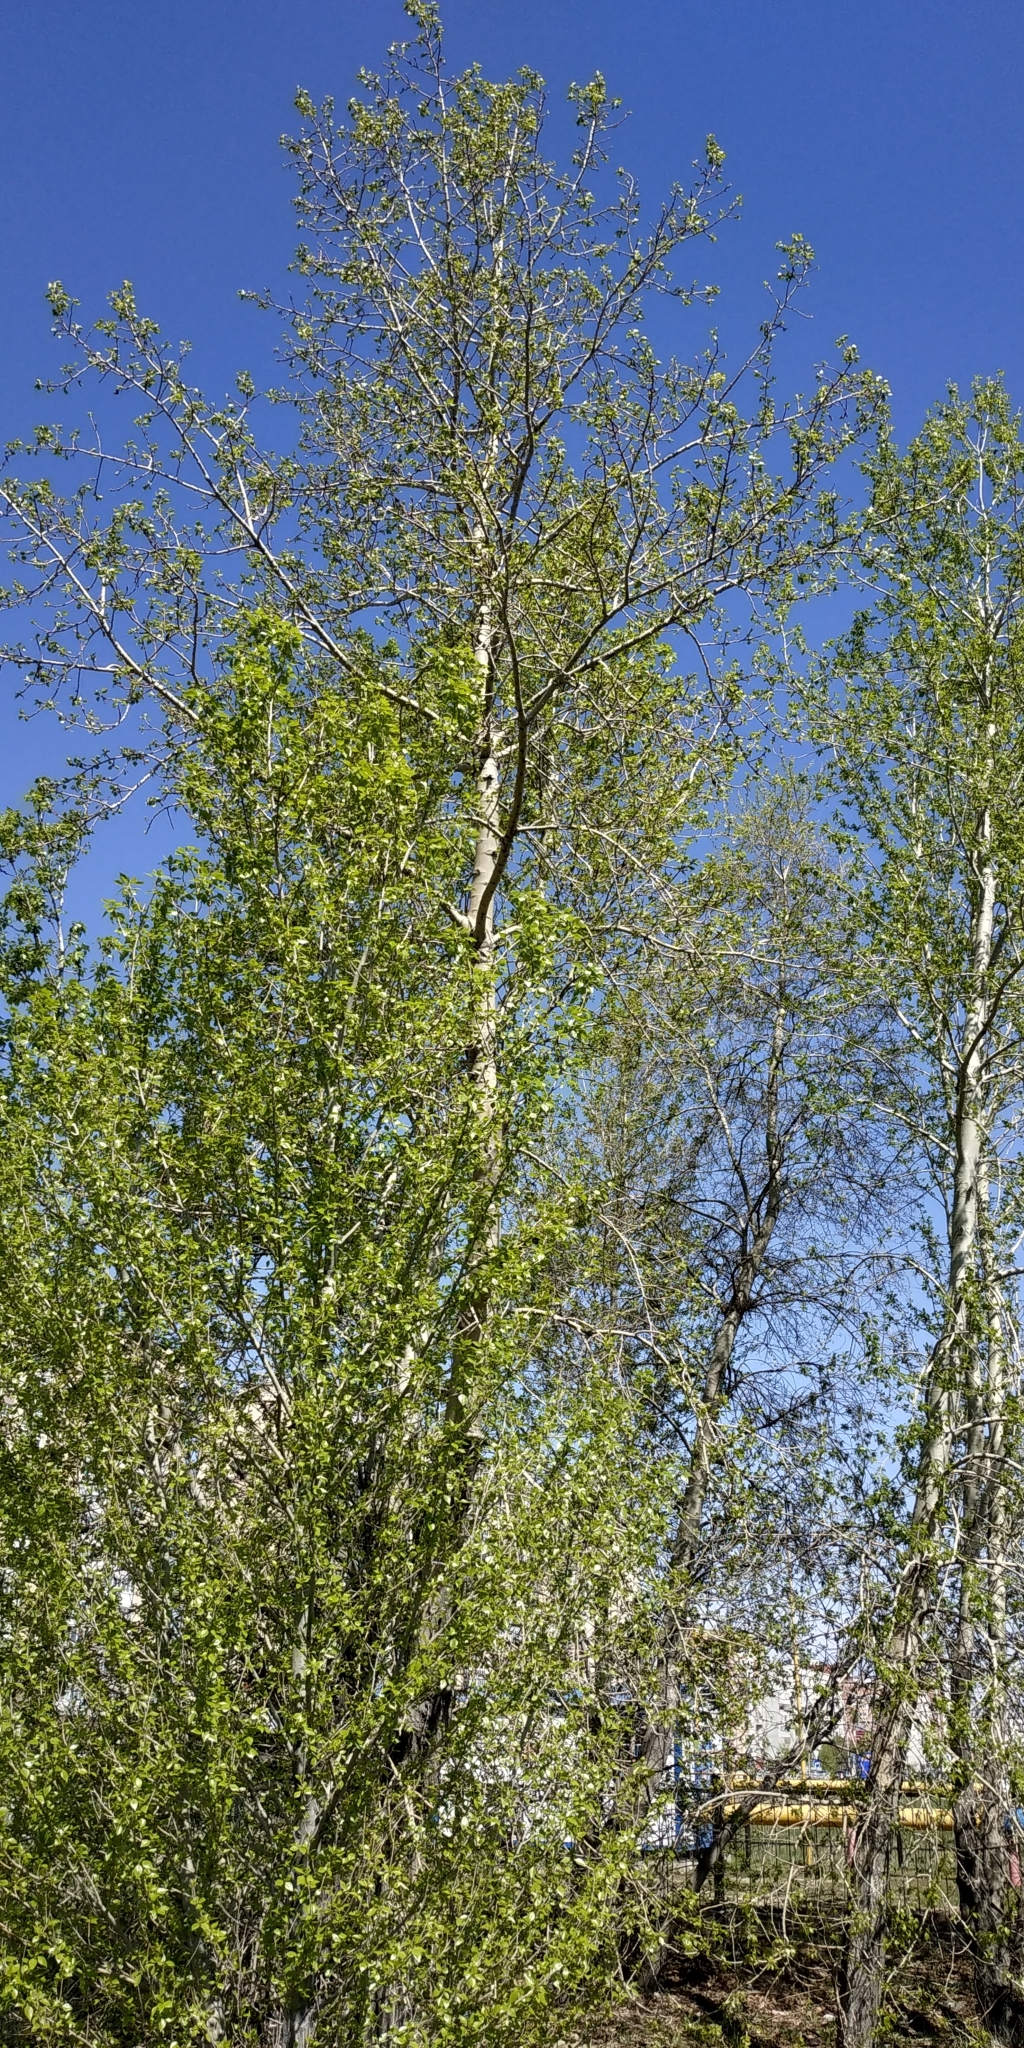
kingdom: Plantae
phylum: Tracheophyta
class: Magnoliopsida
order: Malpighiales
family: Salicaceae
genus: Populus
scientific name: Populus sibirica
